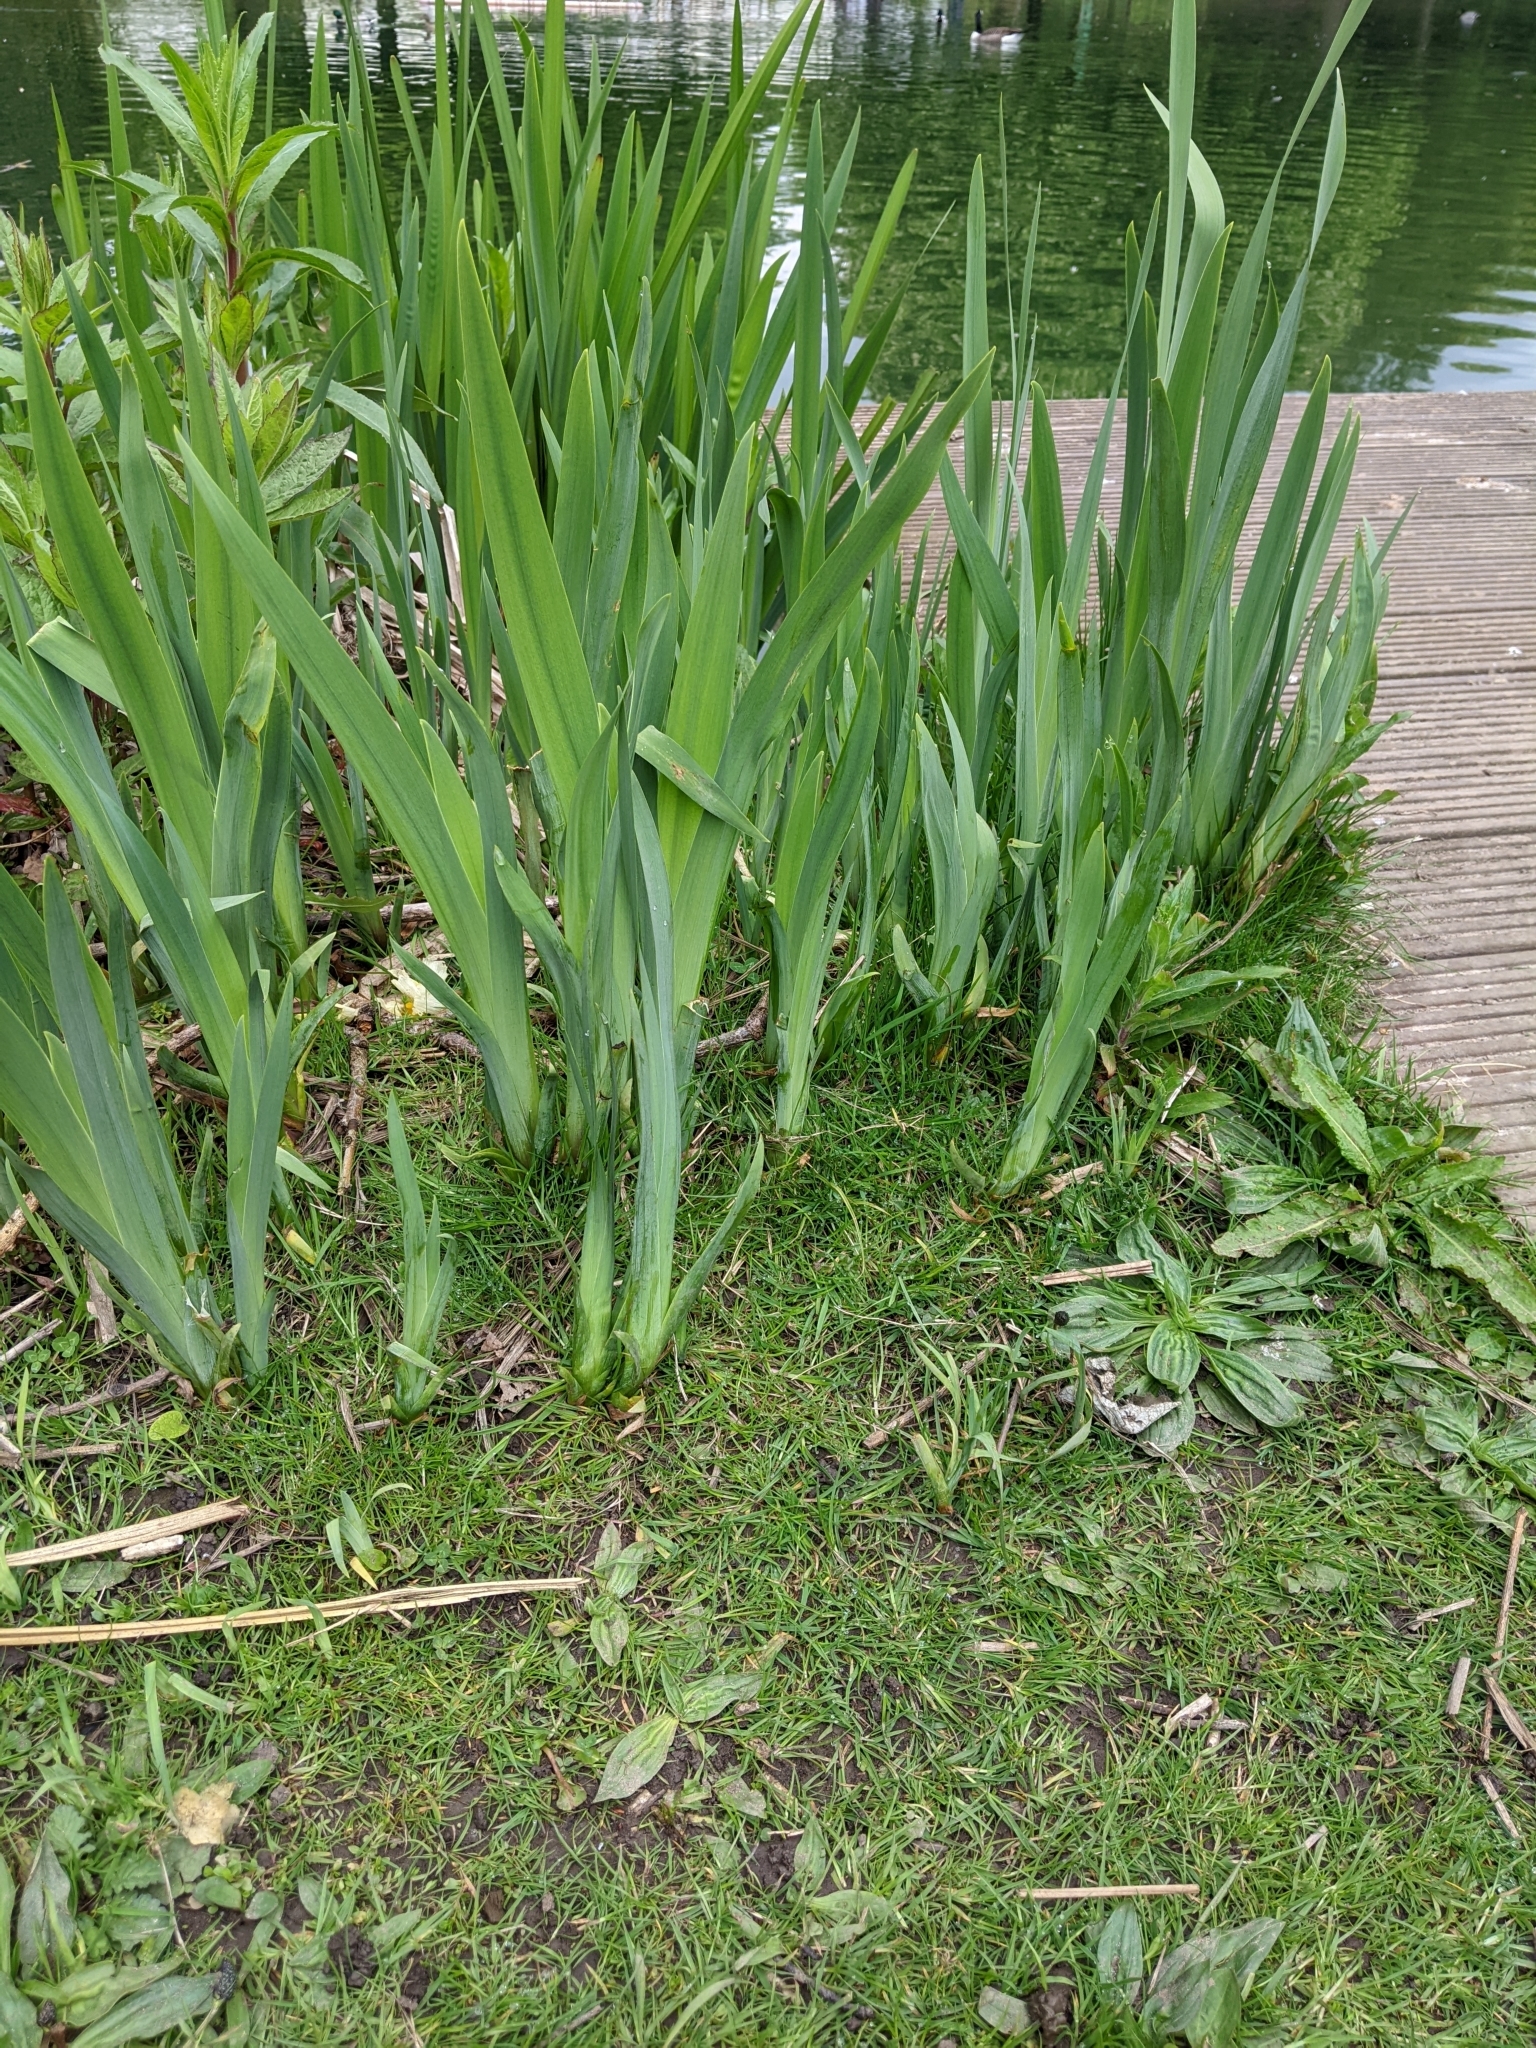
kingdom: Plantae
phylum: Tracheophyta
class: Liliopsida
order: Asparagales
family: Iridaceae
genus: Iris
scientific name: Iris pseudacorus
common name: Yellow flag
